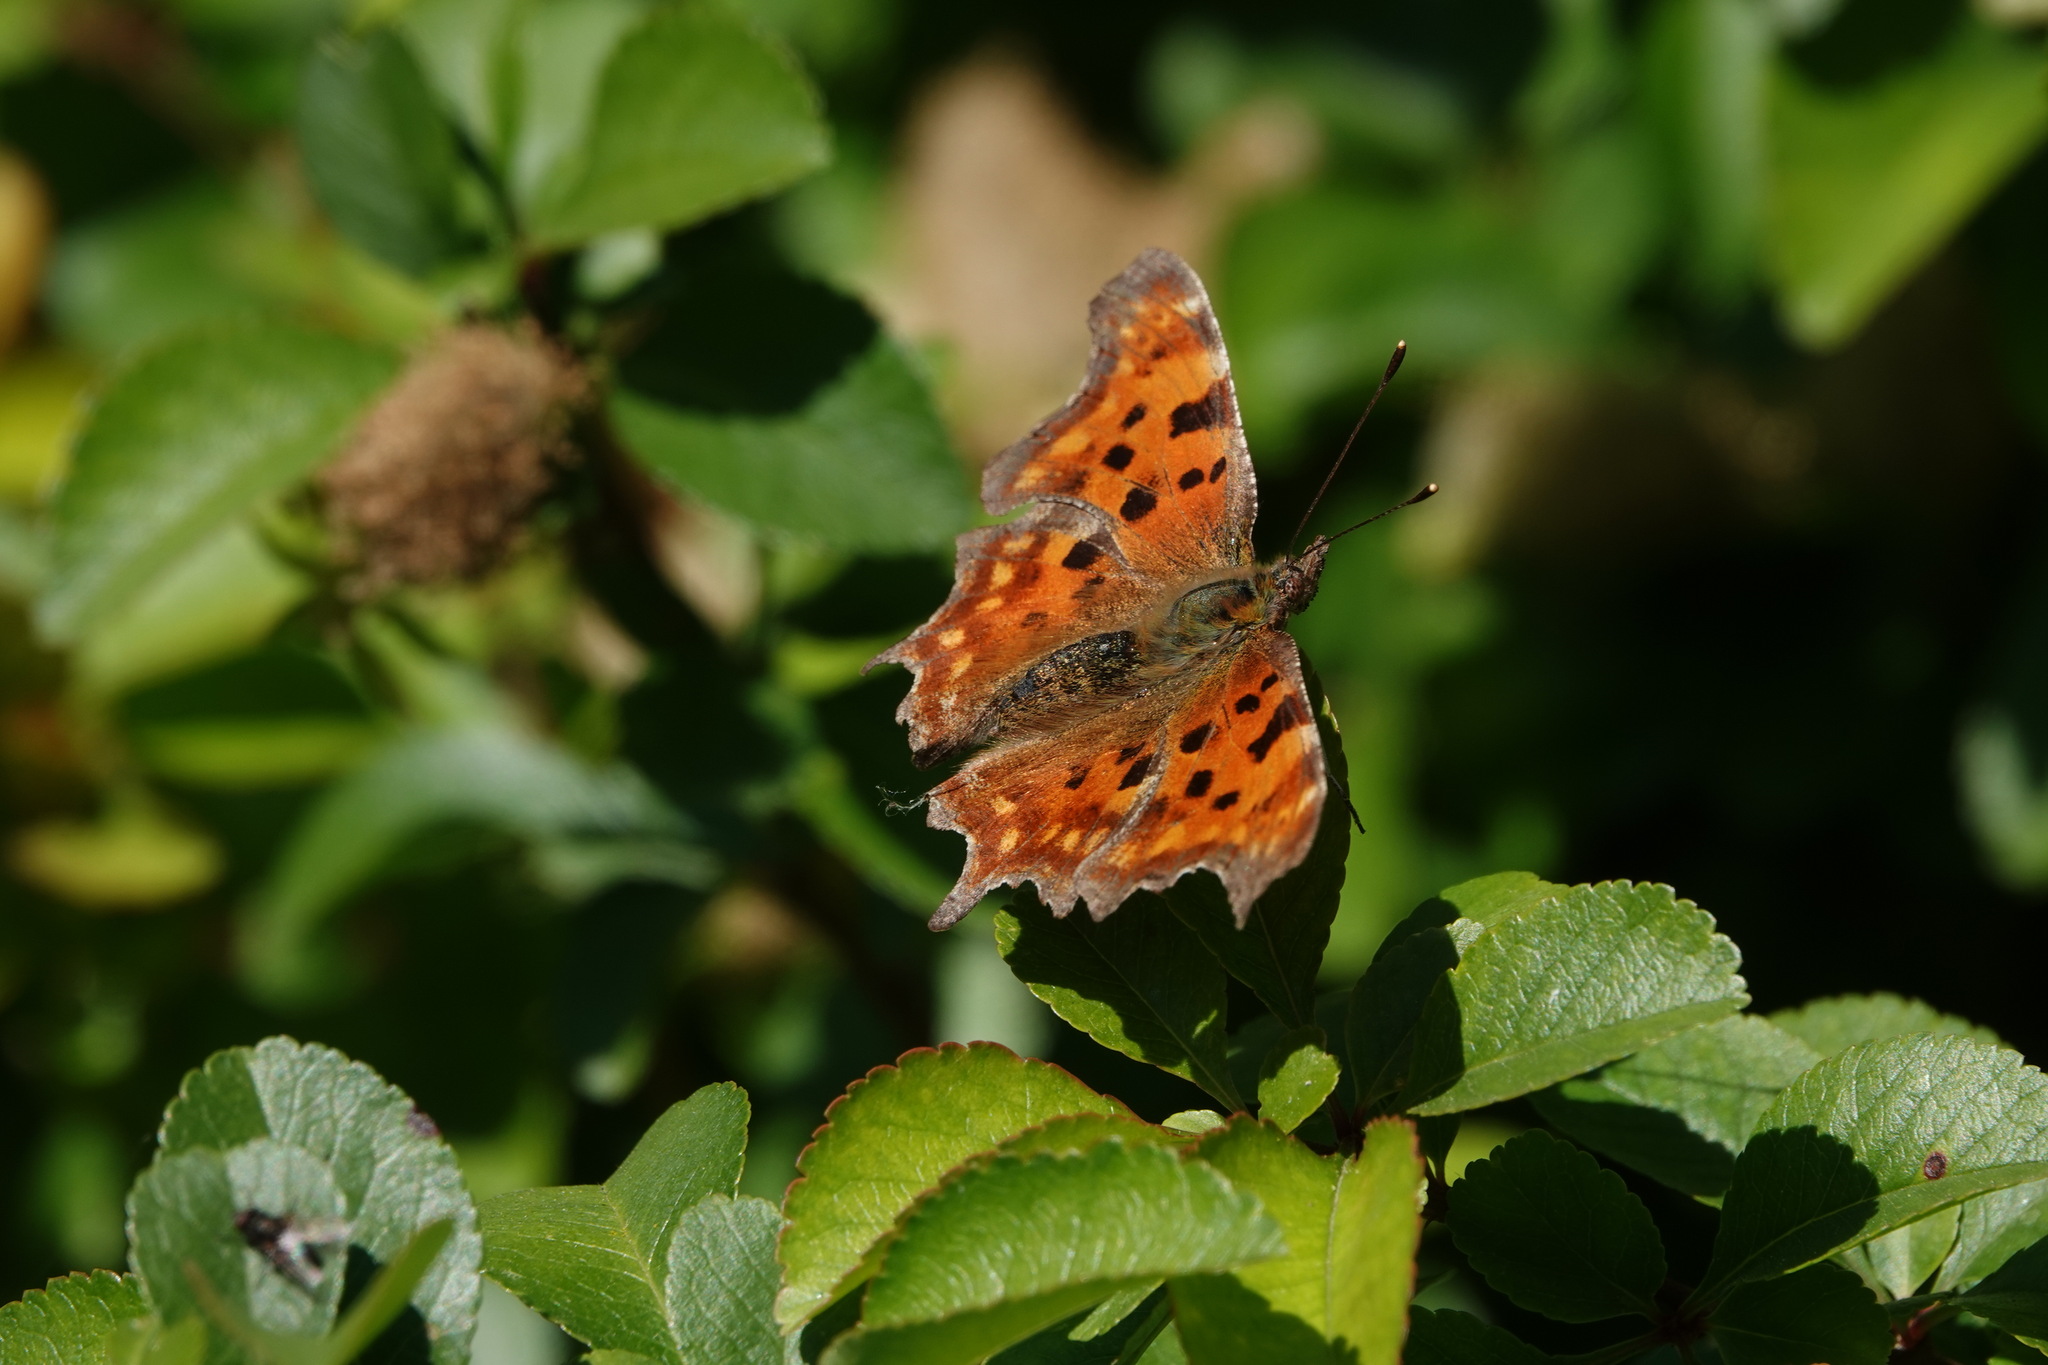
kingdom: Animalia
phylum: Arthropoda
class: Insecta
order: Lepidoptera
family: Nymphalidae
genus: Polygonia
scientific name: Polygonia c-album
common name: Comma
